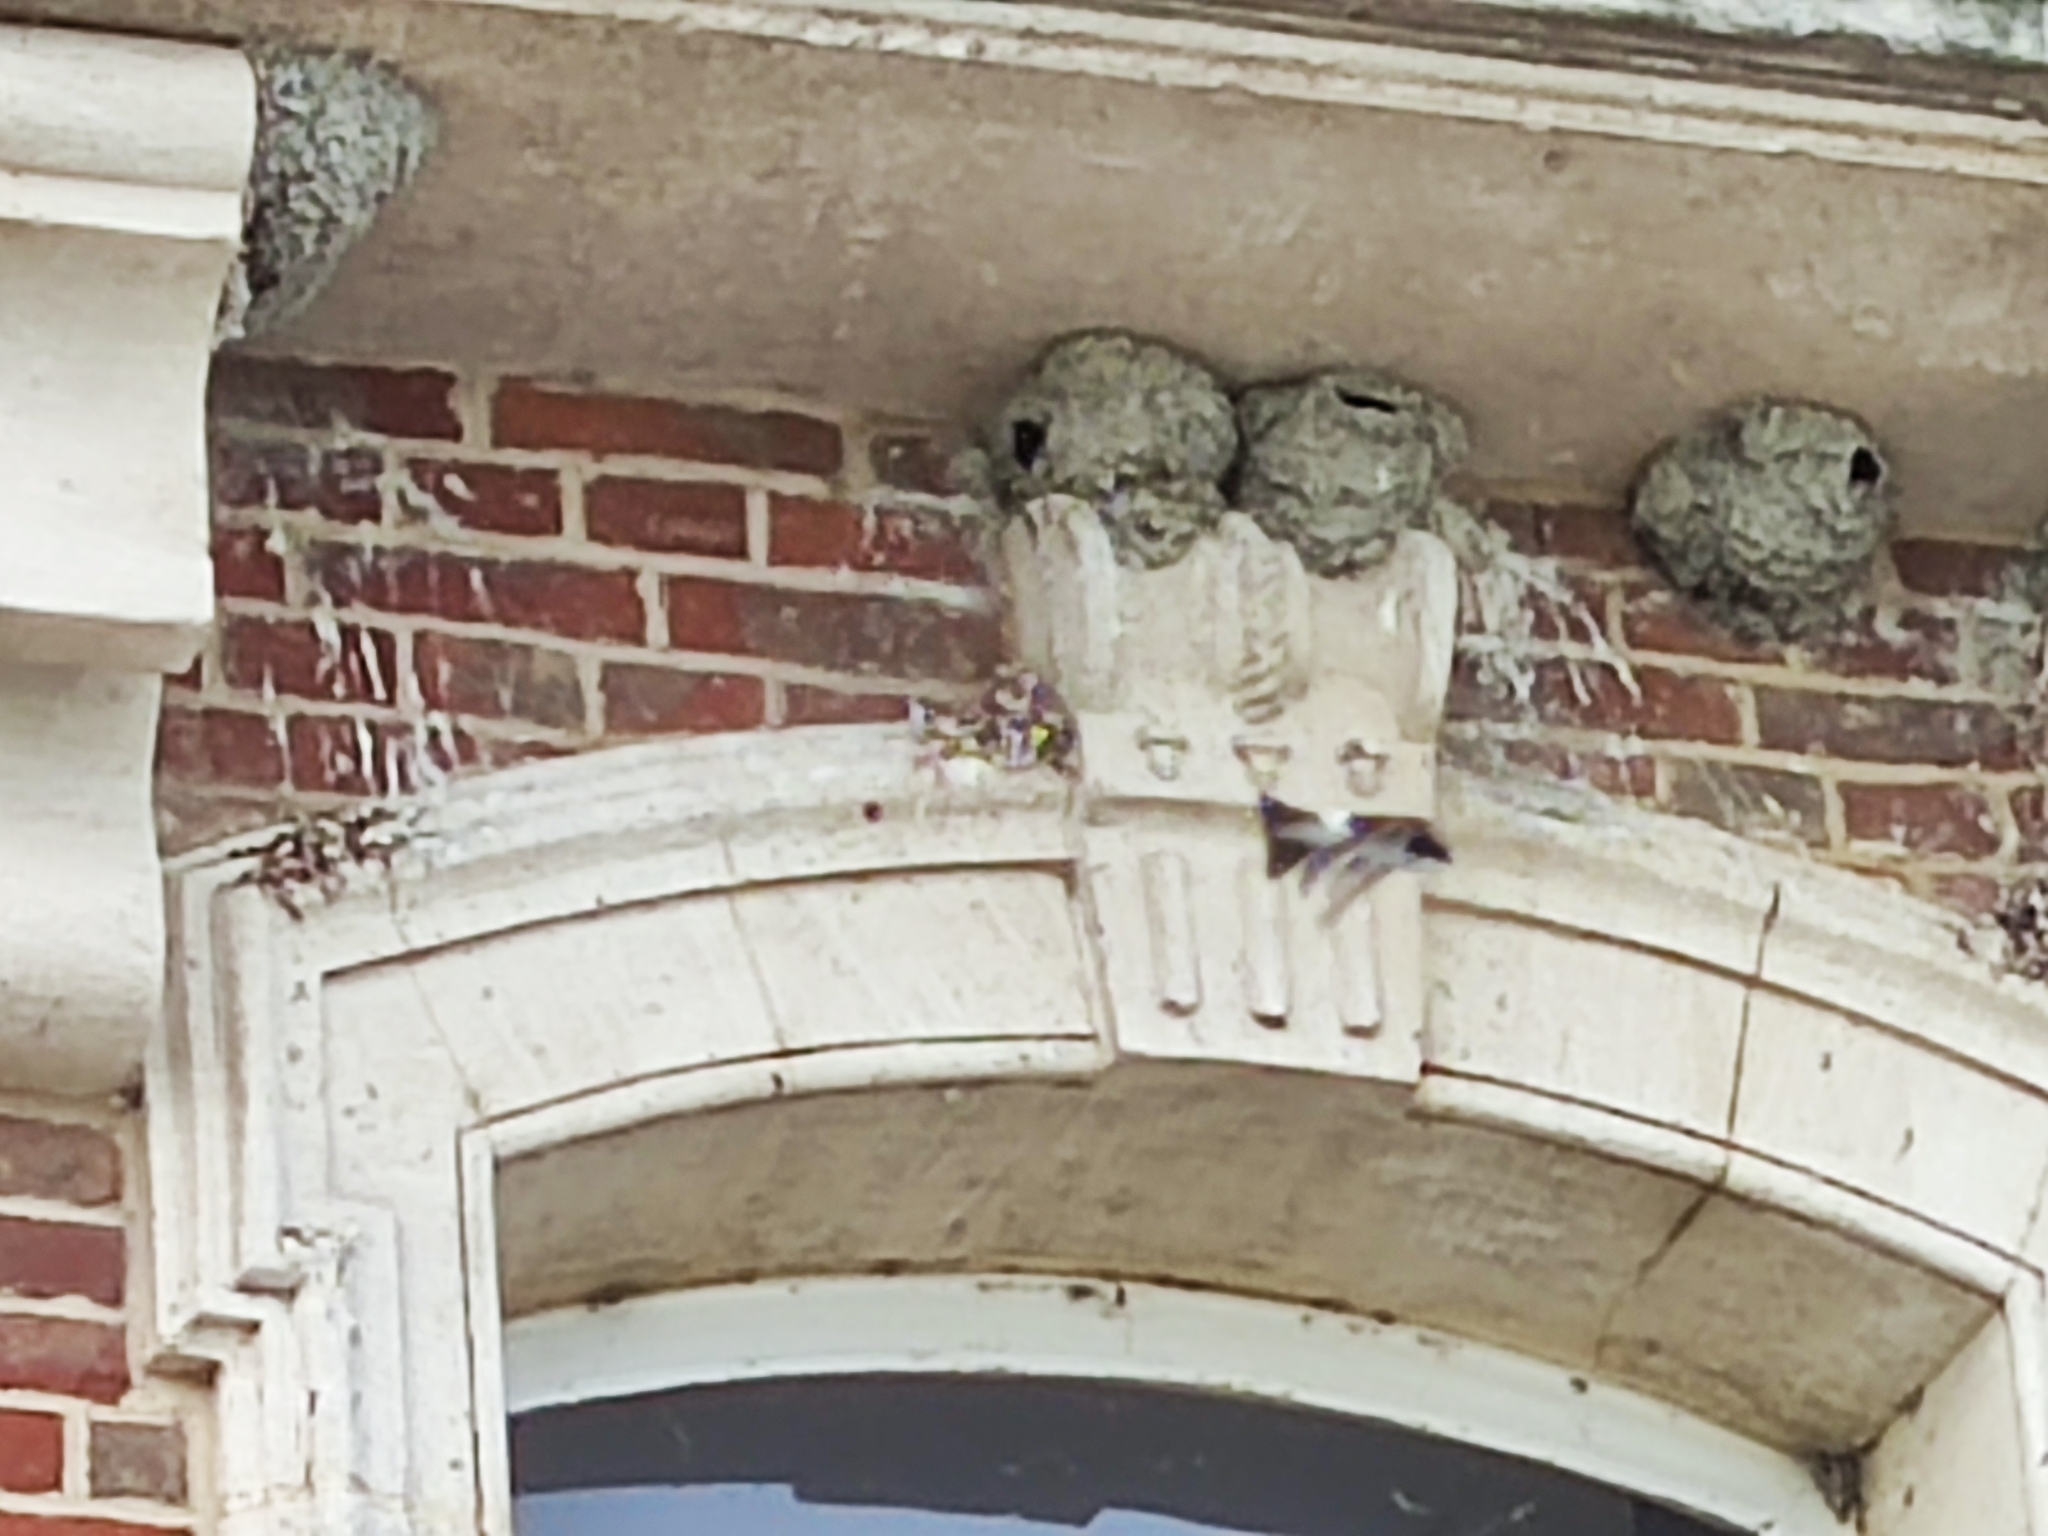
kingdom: Animalia
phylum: Chordata
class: Aves
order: Passeriformes
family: Hirundinidae
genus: Delichon
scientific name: Delichon urbicum
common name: Common house martin
